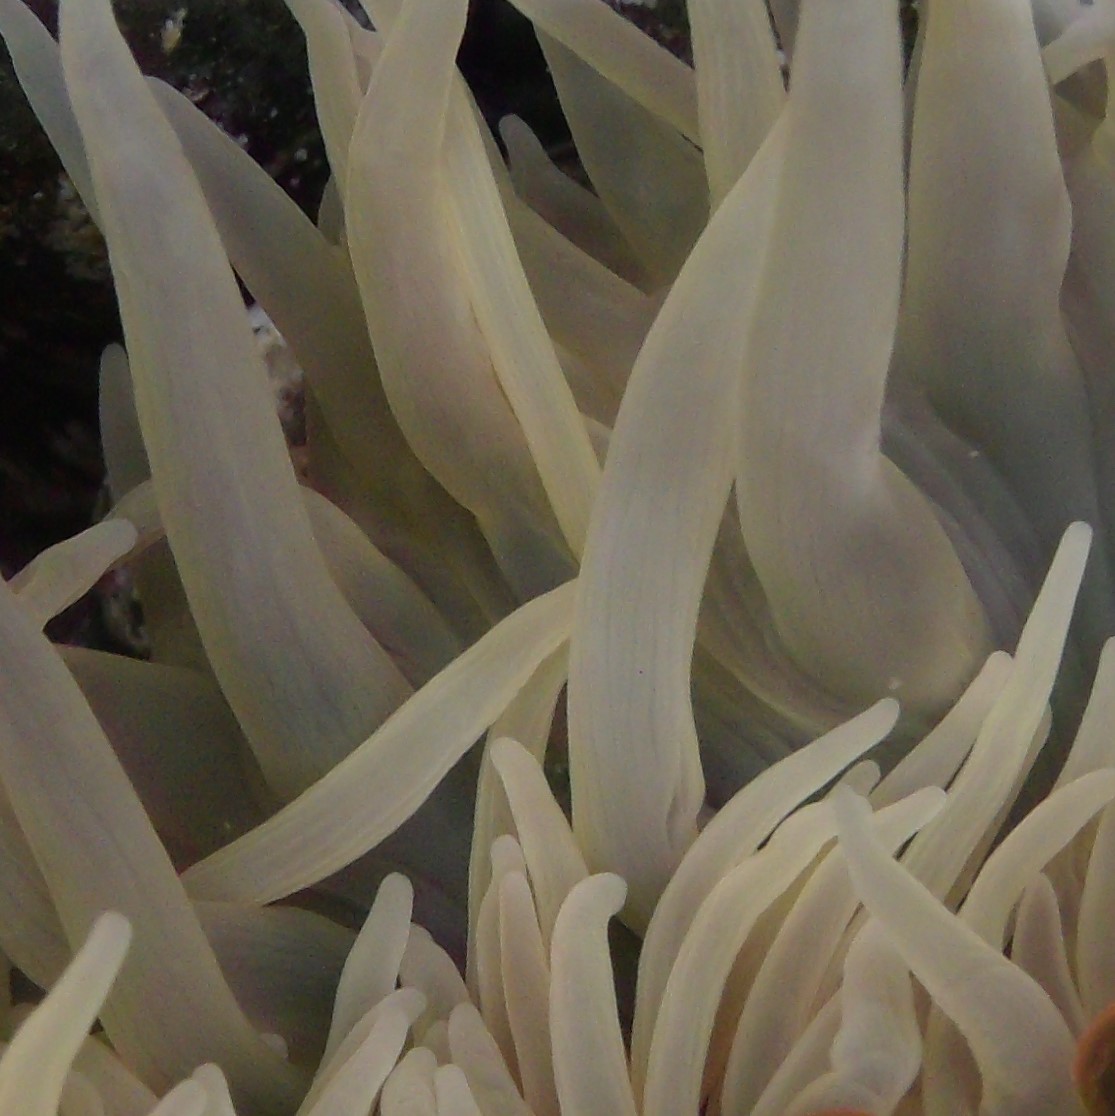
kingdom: Animalia
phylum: Cnidaria
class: Anthozoa
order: Actiniaria
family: Actiniidae
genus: Phlyctenactis
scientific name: Phlyctenactis tuberculosa
